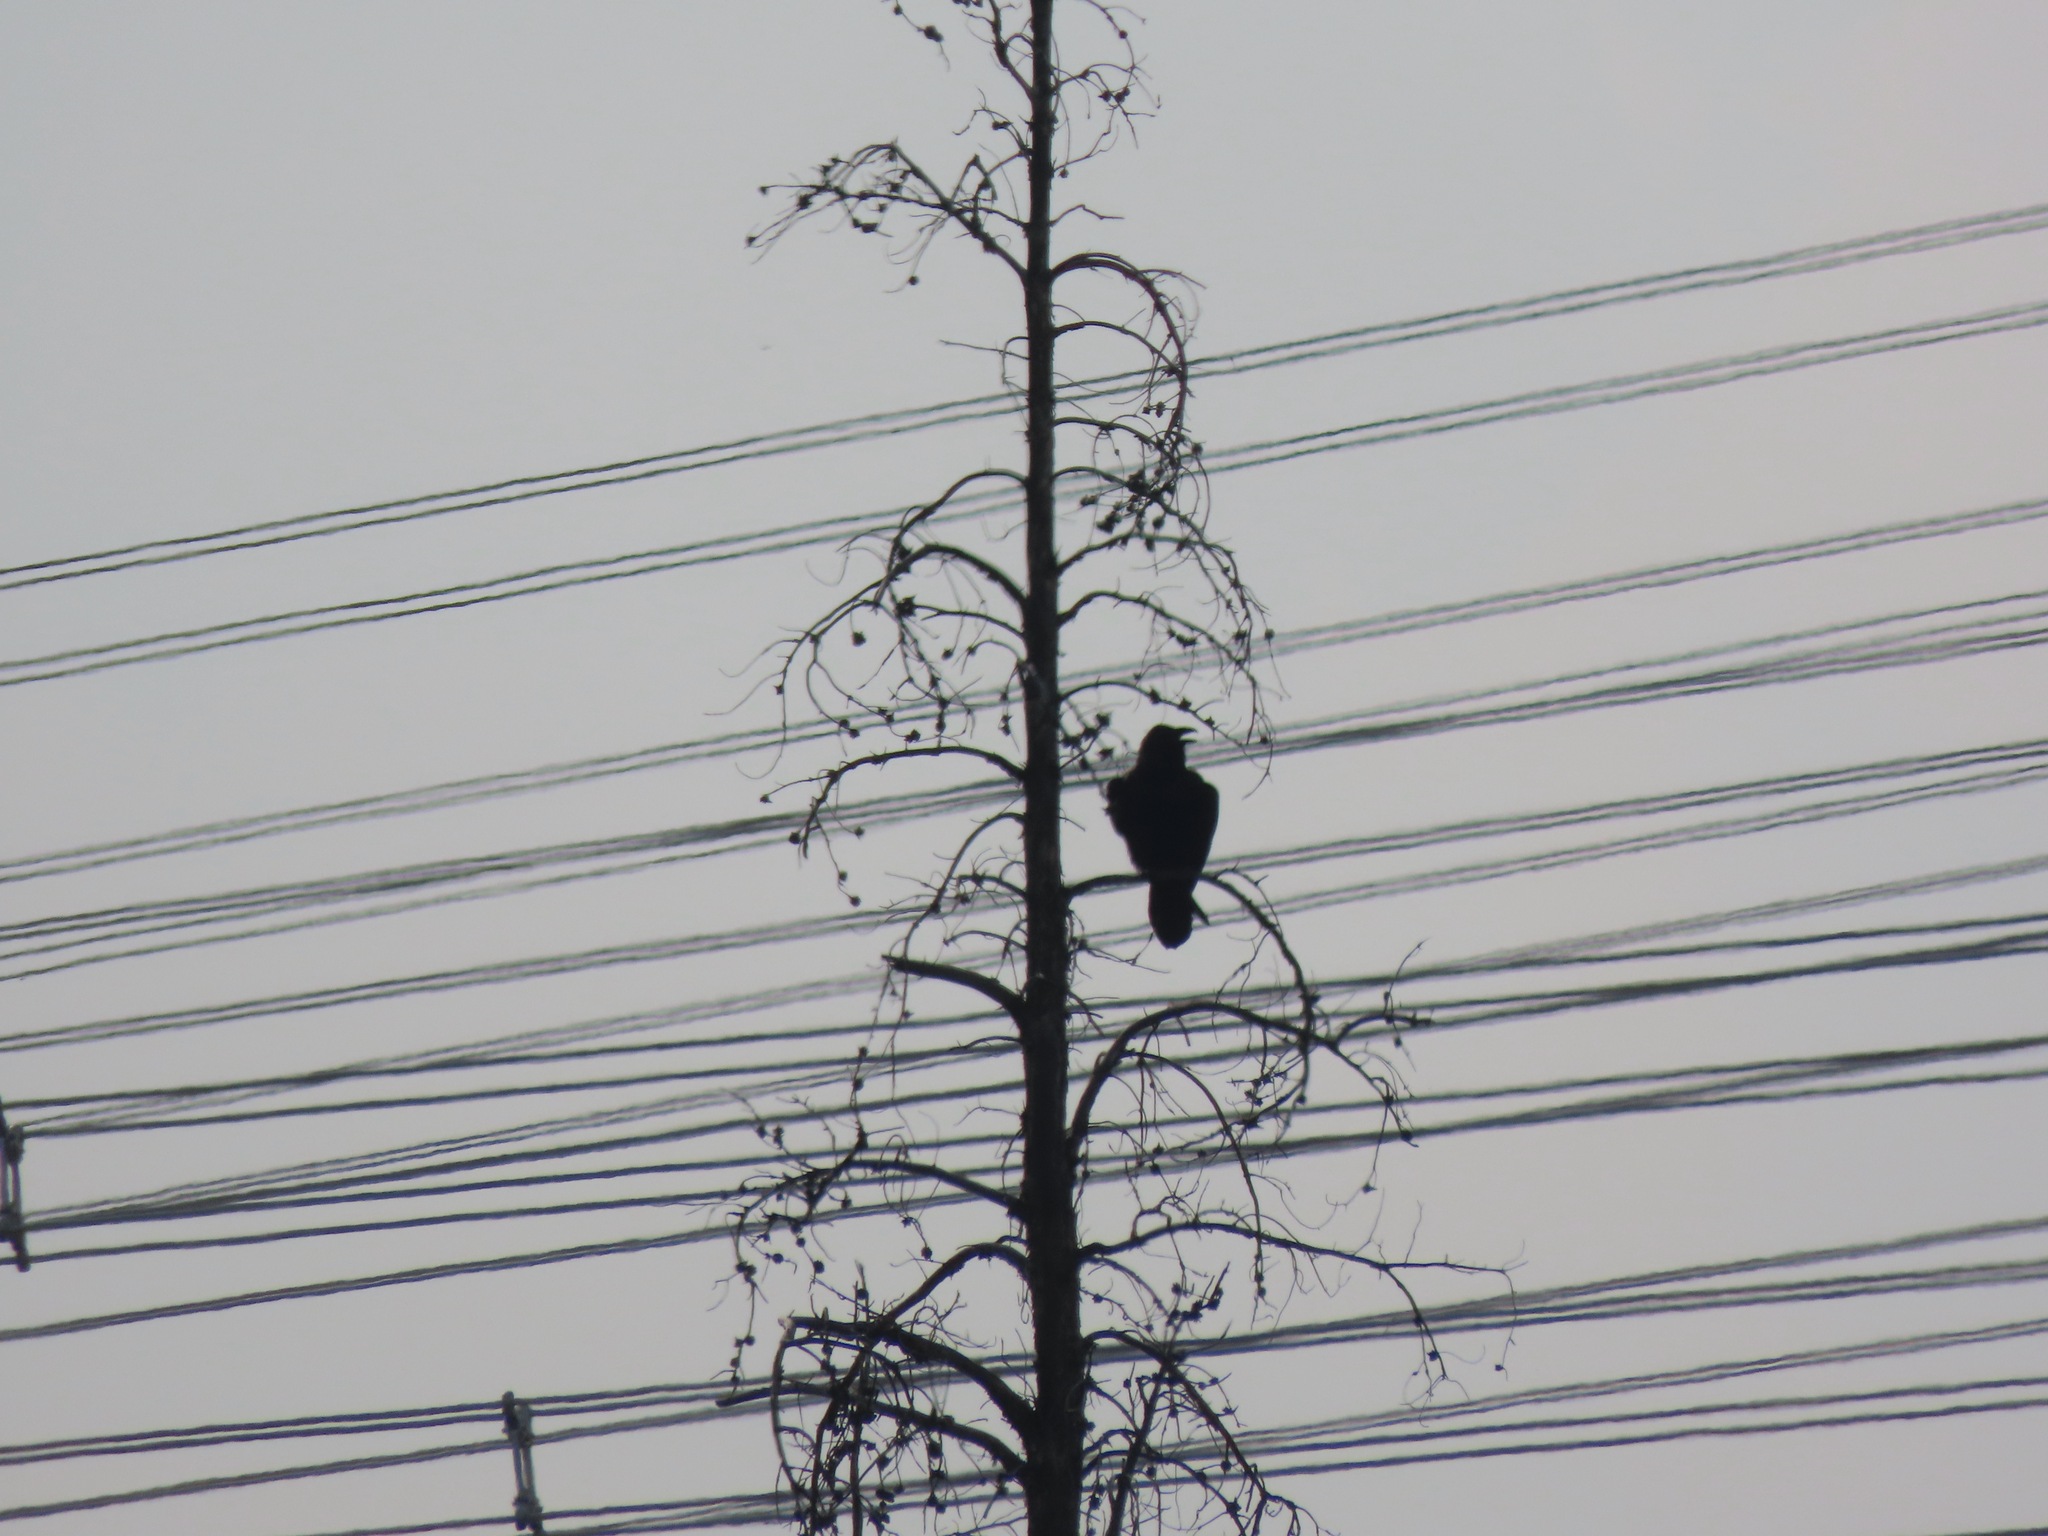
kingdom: Animalia
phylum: Chordata
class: Aves
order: Passeriformes
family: Corvidae
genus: Corvus
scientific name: Corvus corax
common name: Common raven
